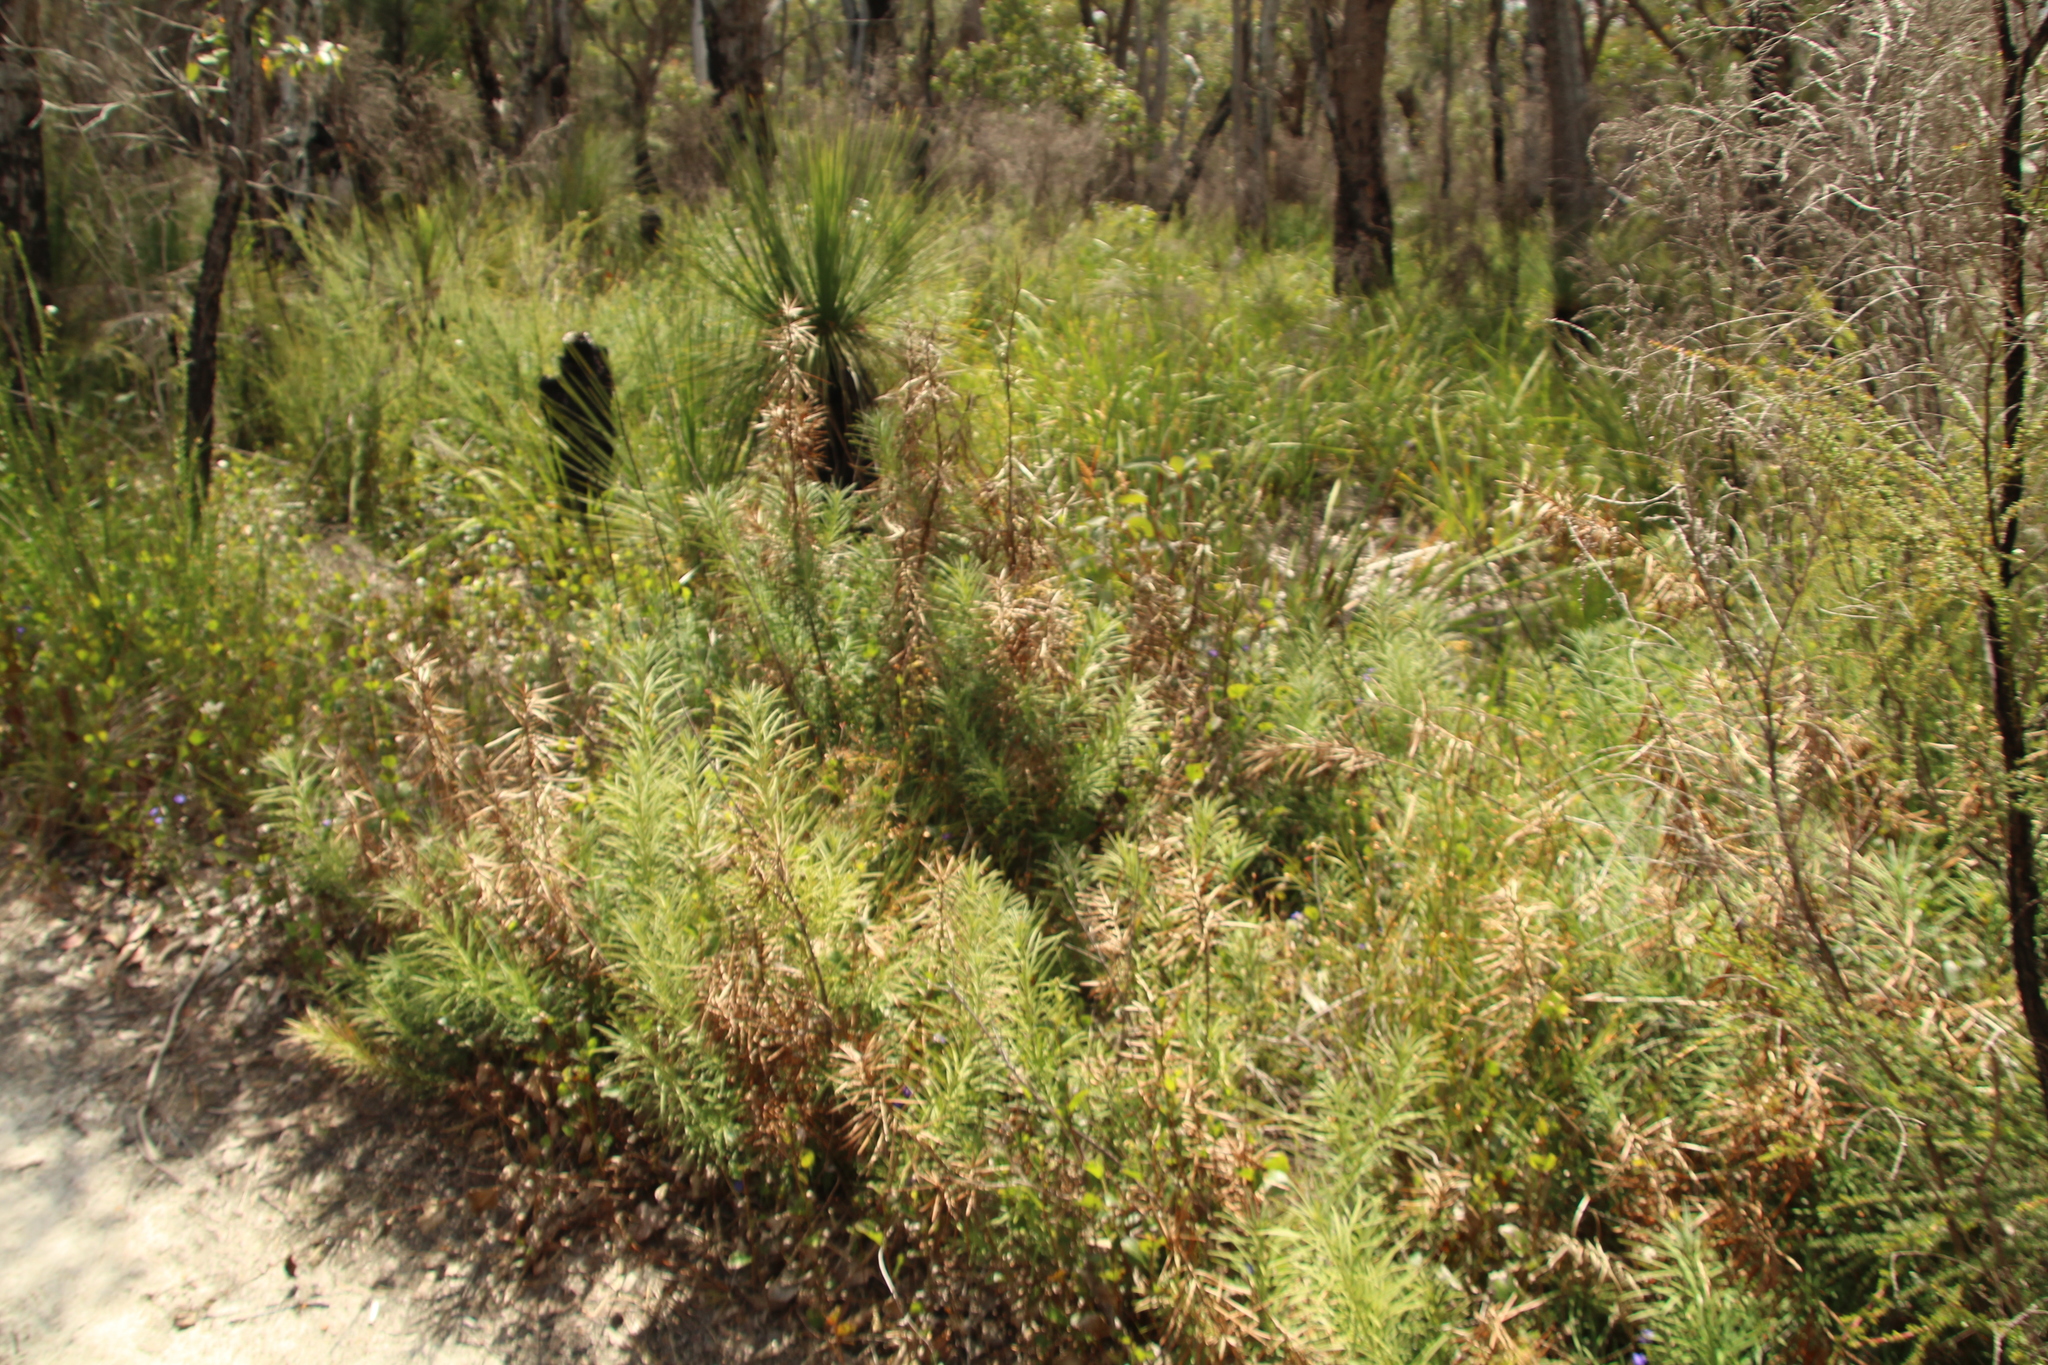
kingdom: Plantae
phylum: Tracheophyta
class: Pinopsida
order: Pinales
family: Podocarpaceae
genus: Podocarpus
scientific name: Podocarpus drouynianus
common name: Emu berry
